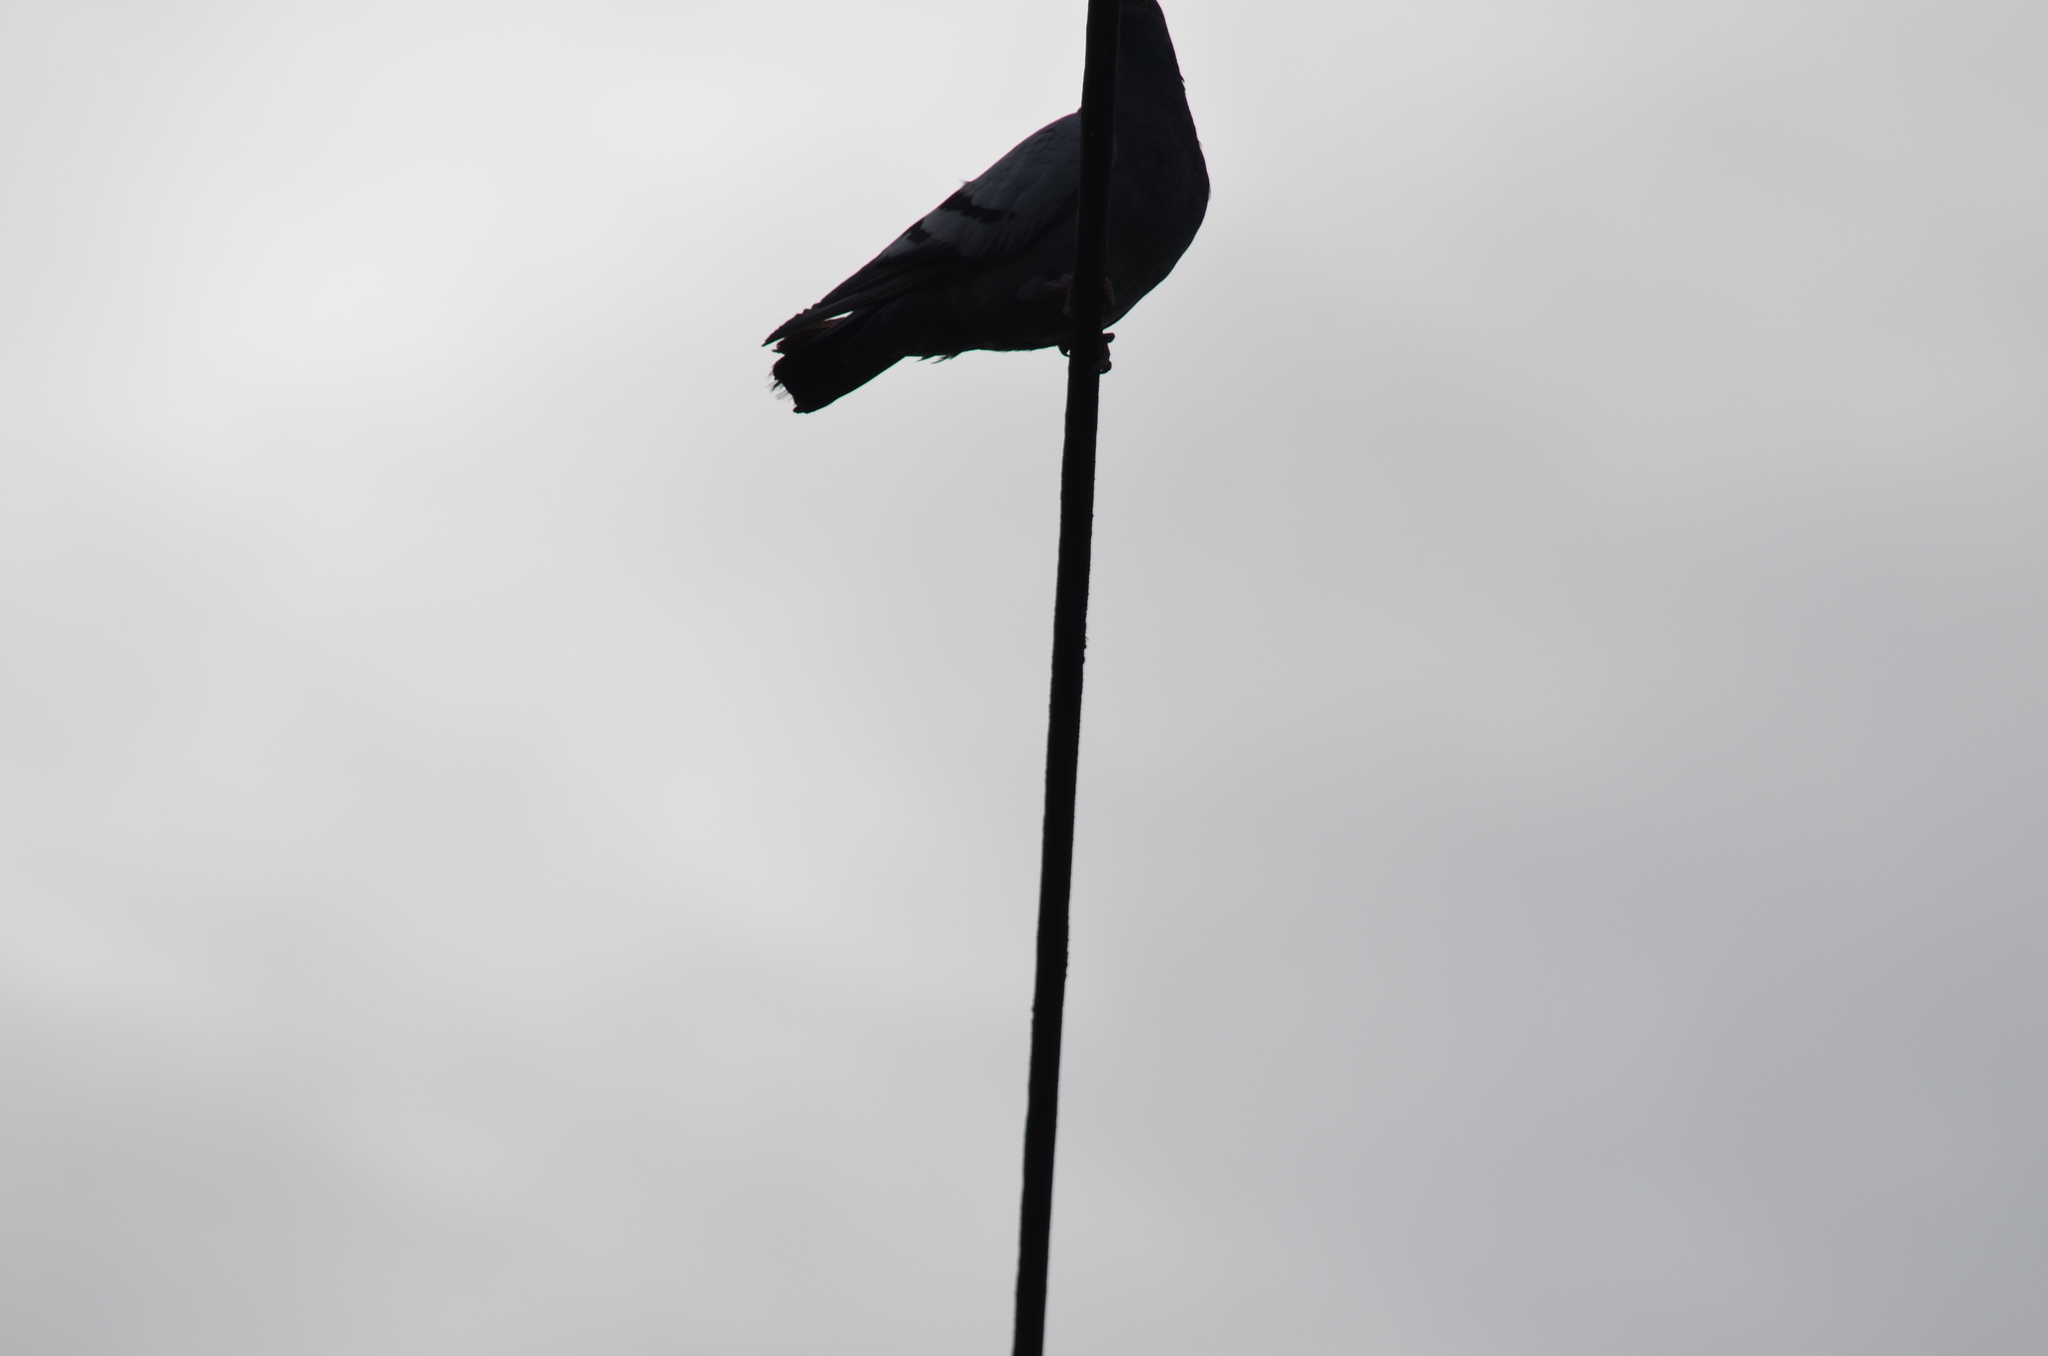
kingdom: Animalia
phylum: Chordata
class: Aves
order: Columbiformes
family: Columbidae
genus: Columba
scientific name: Columba livia
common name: Rock pigeon
